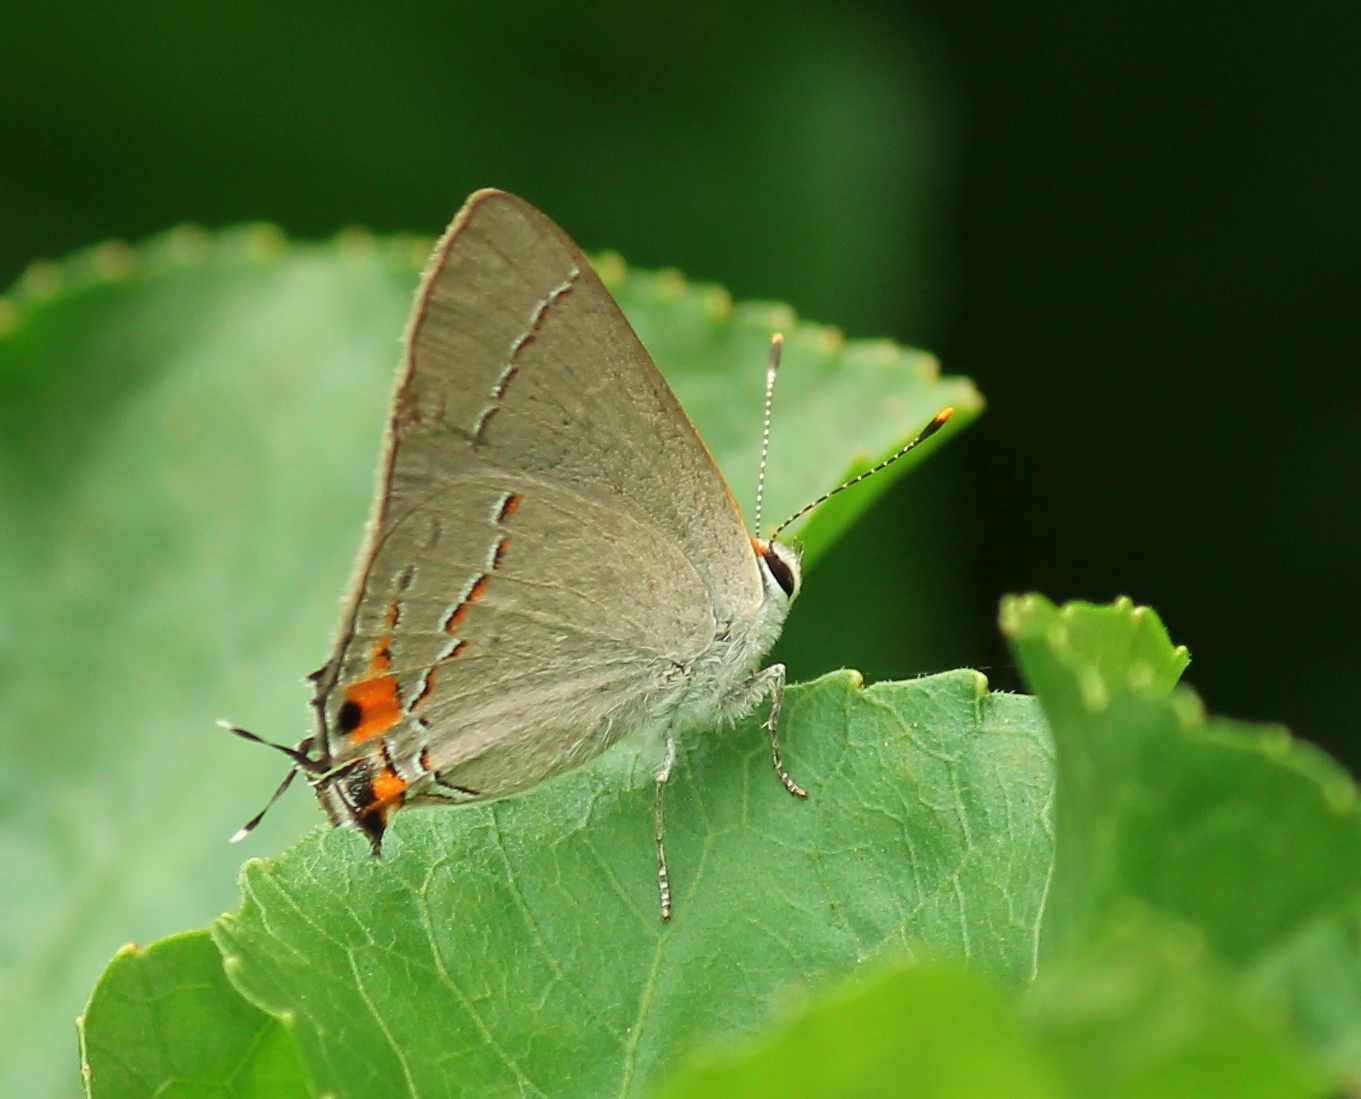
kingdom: Animalia
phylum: Arthropoda
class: Insecta
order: Lepidoptera
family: Lycaenidae
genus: Strymon
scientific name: Strymon melinus
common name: Gray hairstreak
